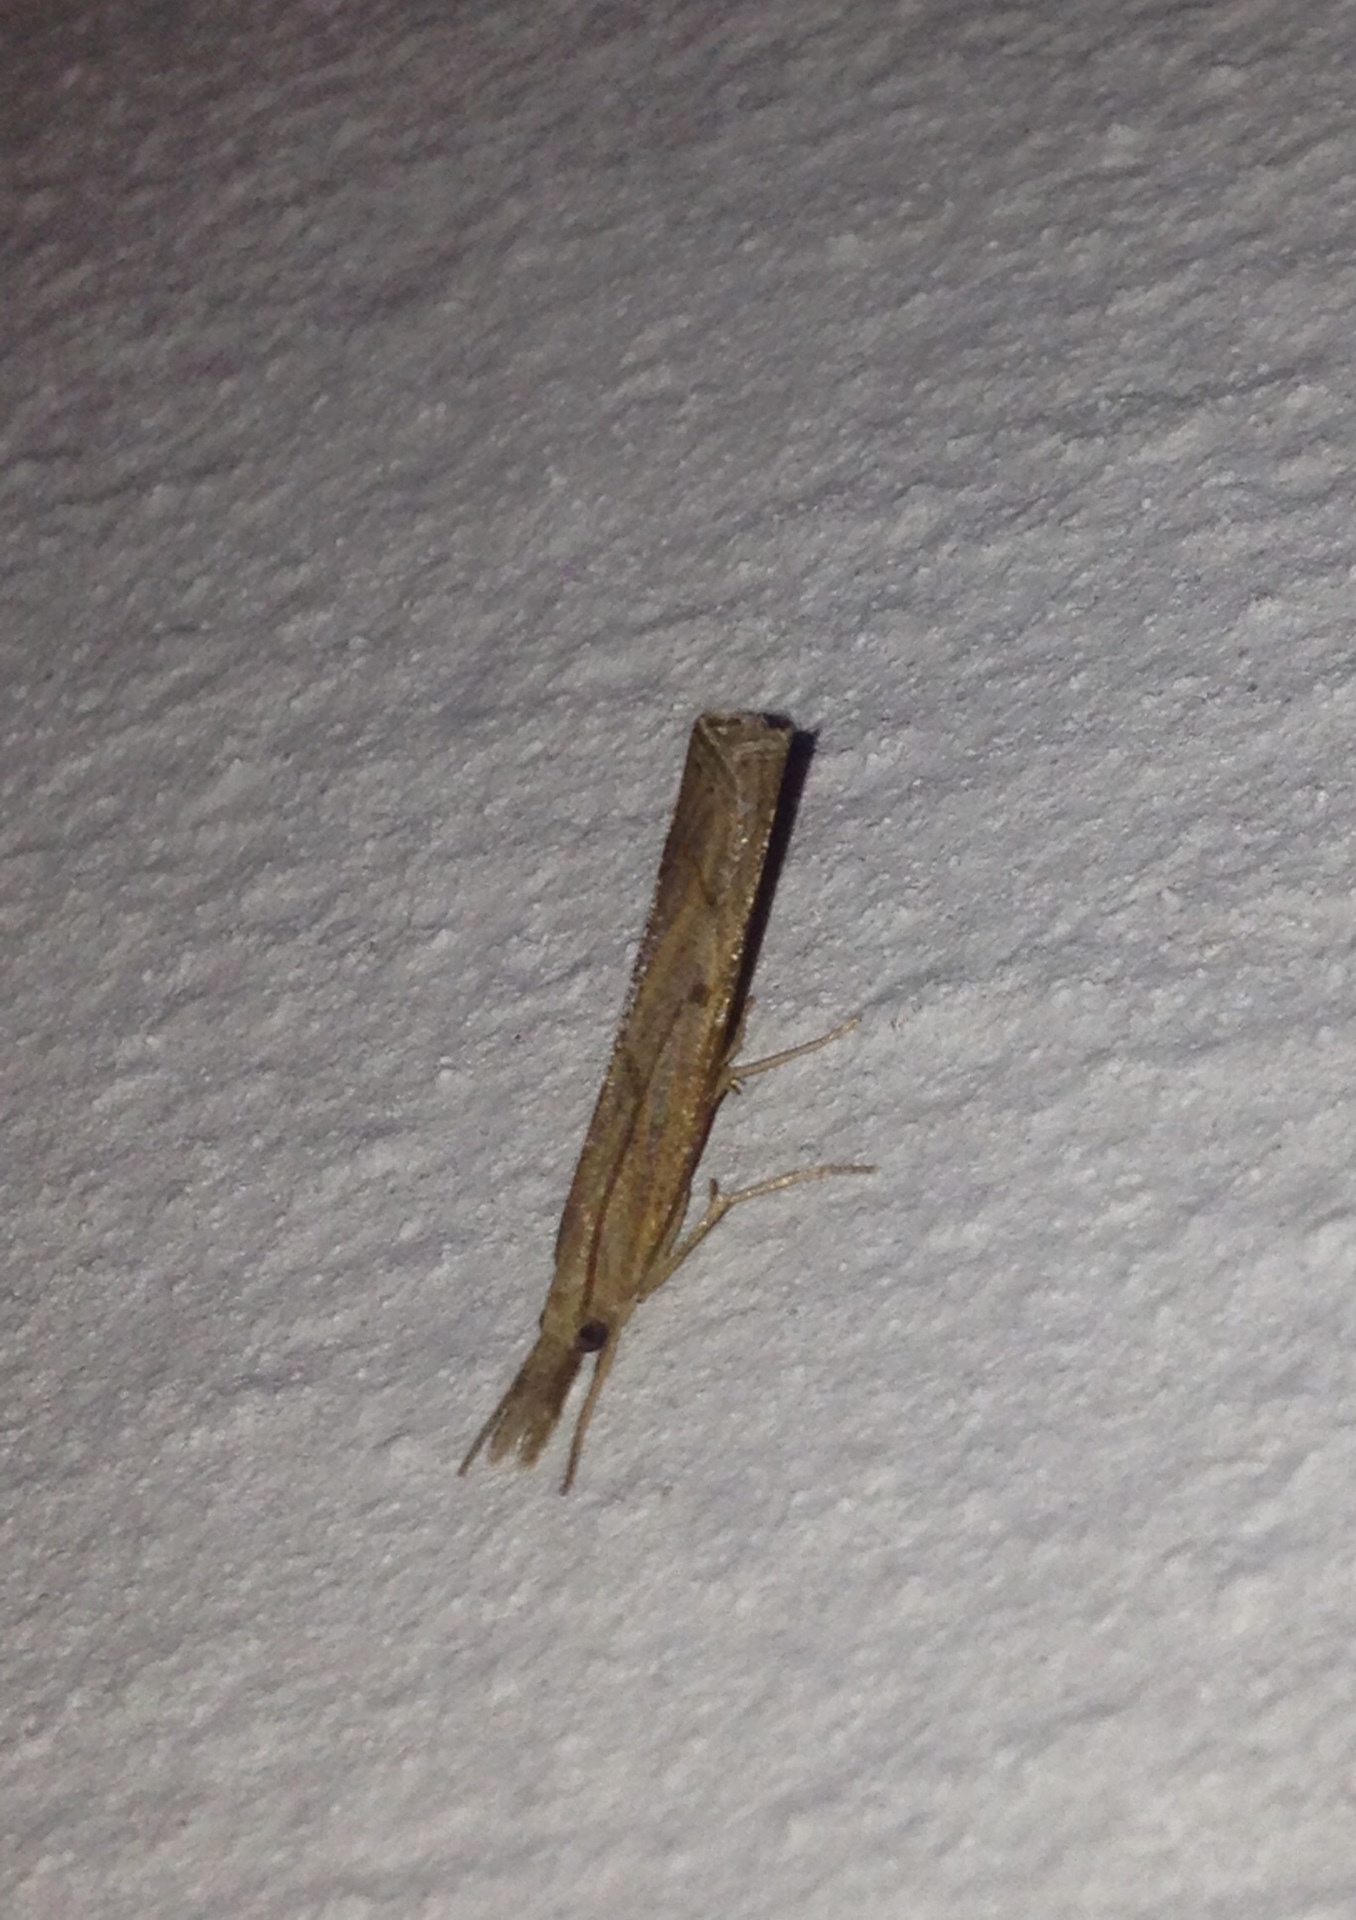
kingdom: Animalia
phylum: Arthropoda
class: Insecta
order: Lepidoptera
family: Crambidae
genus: Pediasia
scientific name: Pediasia contaminella
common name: Waste grass-veneer
